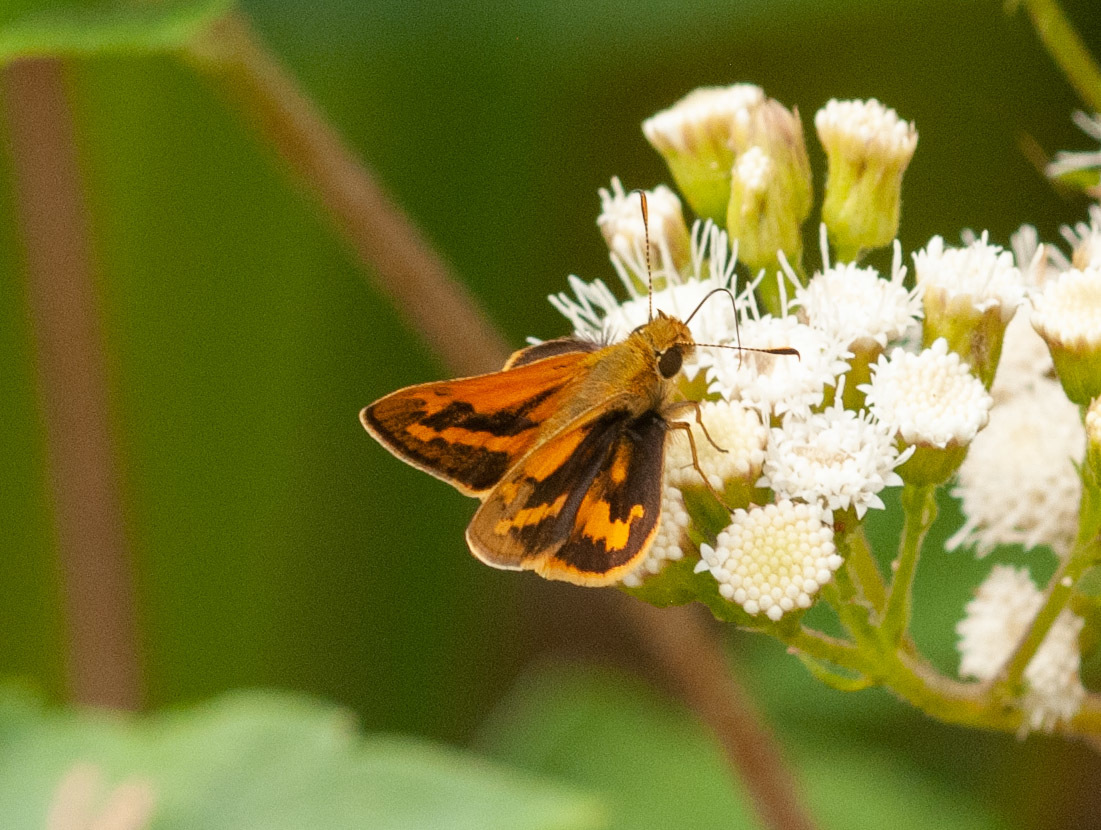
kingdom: Animalia
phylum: Arthropoda
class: Insecta
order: Lepidoptera
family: Hesperiidae
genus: Ocybadistes
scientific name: Ocybadistes walkeri
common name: Yellow-banded dart
